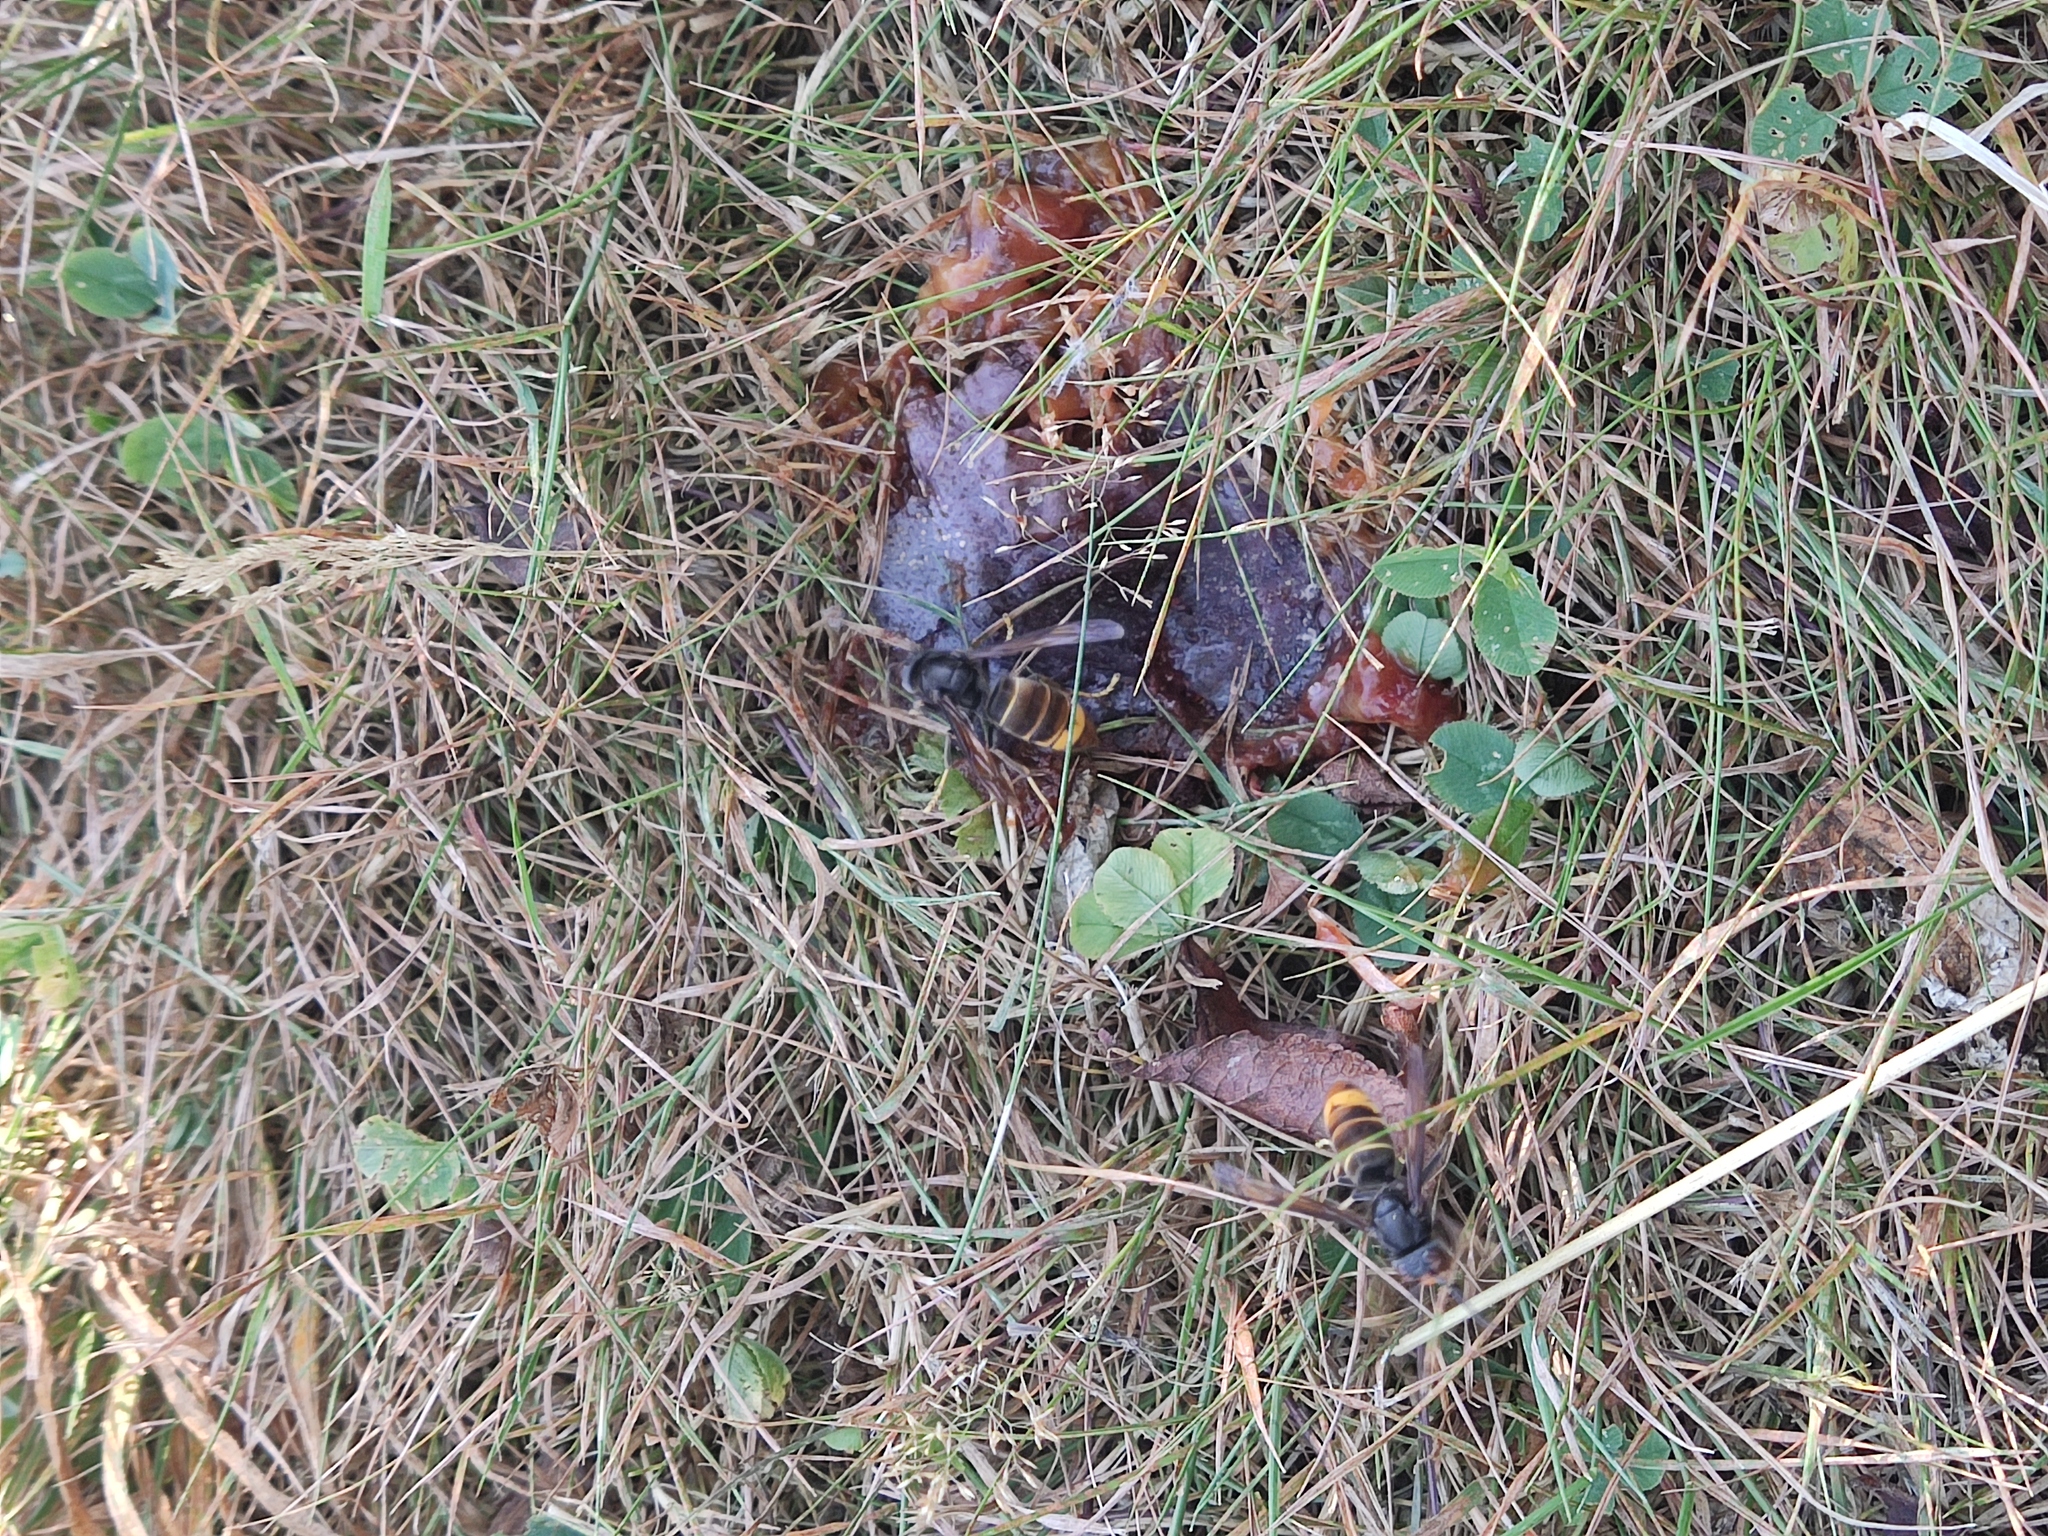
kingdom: Animalia
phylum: Arthropoda
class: Insecta
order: Hymenoptera
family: Vespidae
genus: Vespa
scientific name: Vespa velutina
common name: Asian hornet
